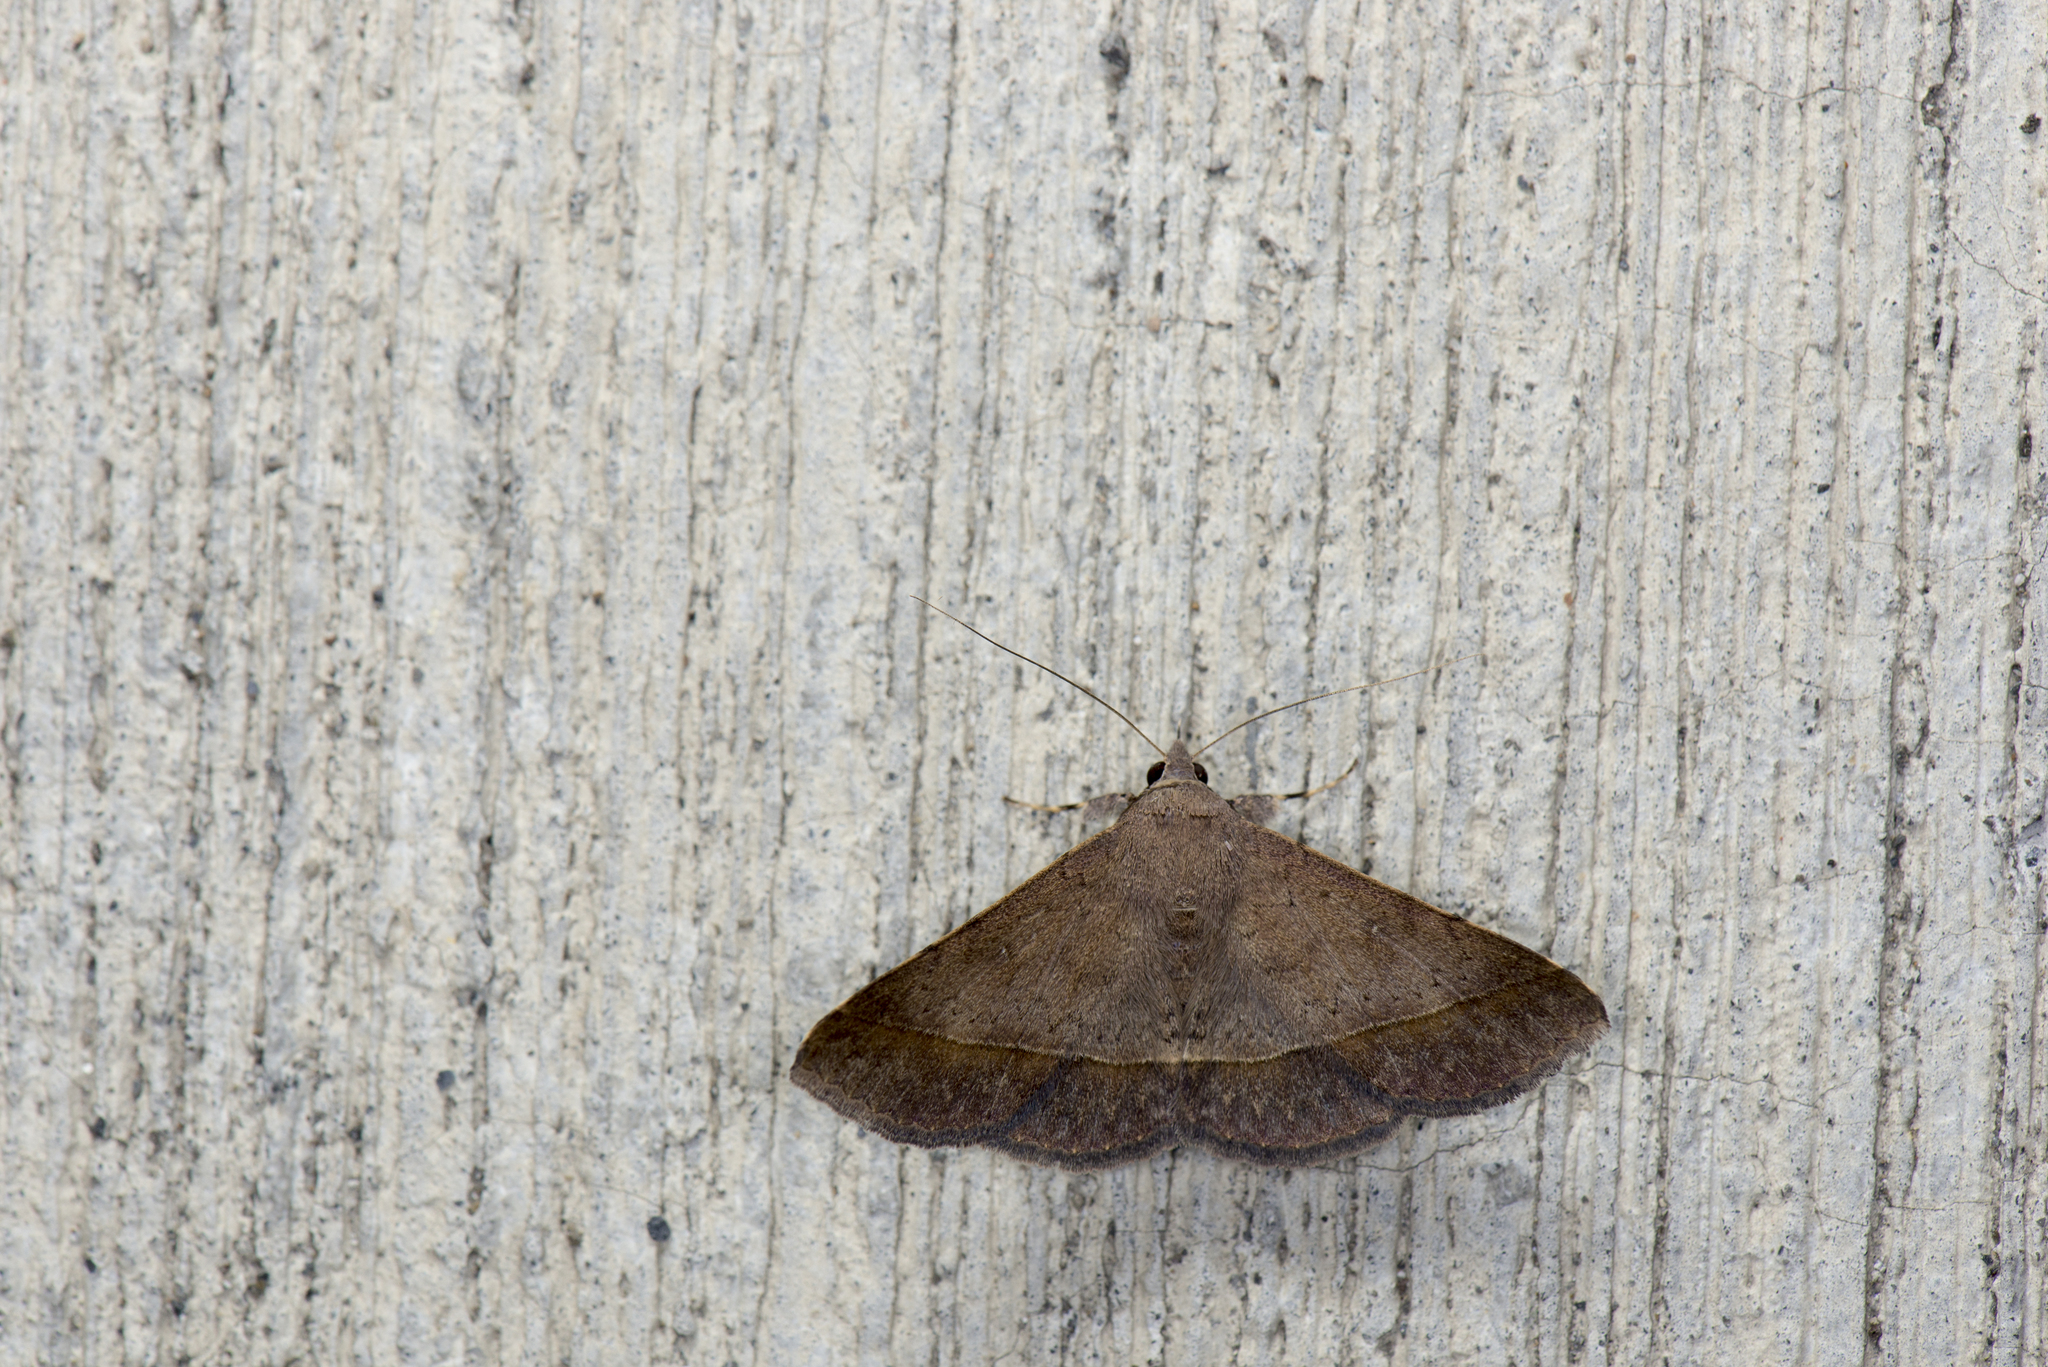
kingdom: Animalia
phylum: Arthropoda
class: Insecta
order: Lepidoptera
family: Erebidae
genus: Hypospila
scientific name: Hypospila bolinoides
